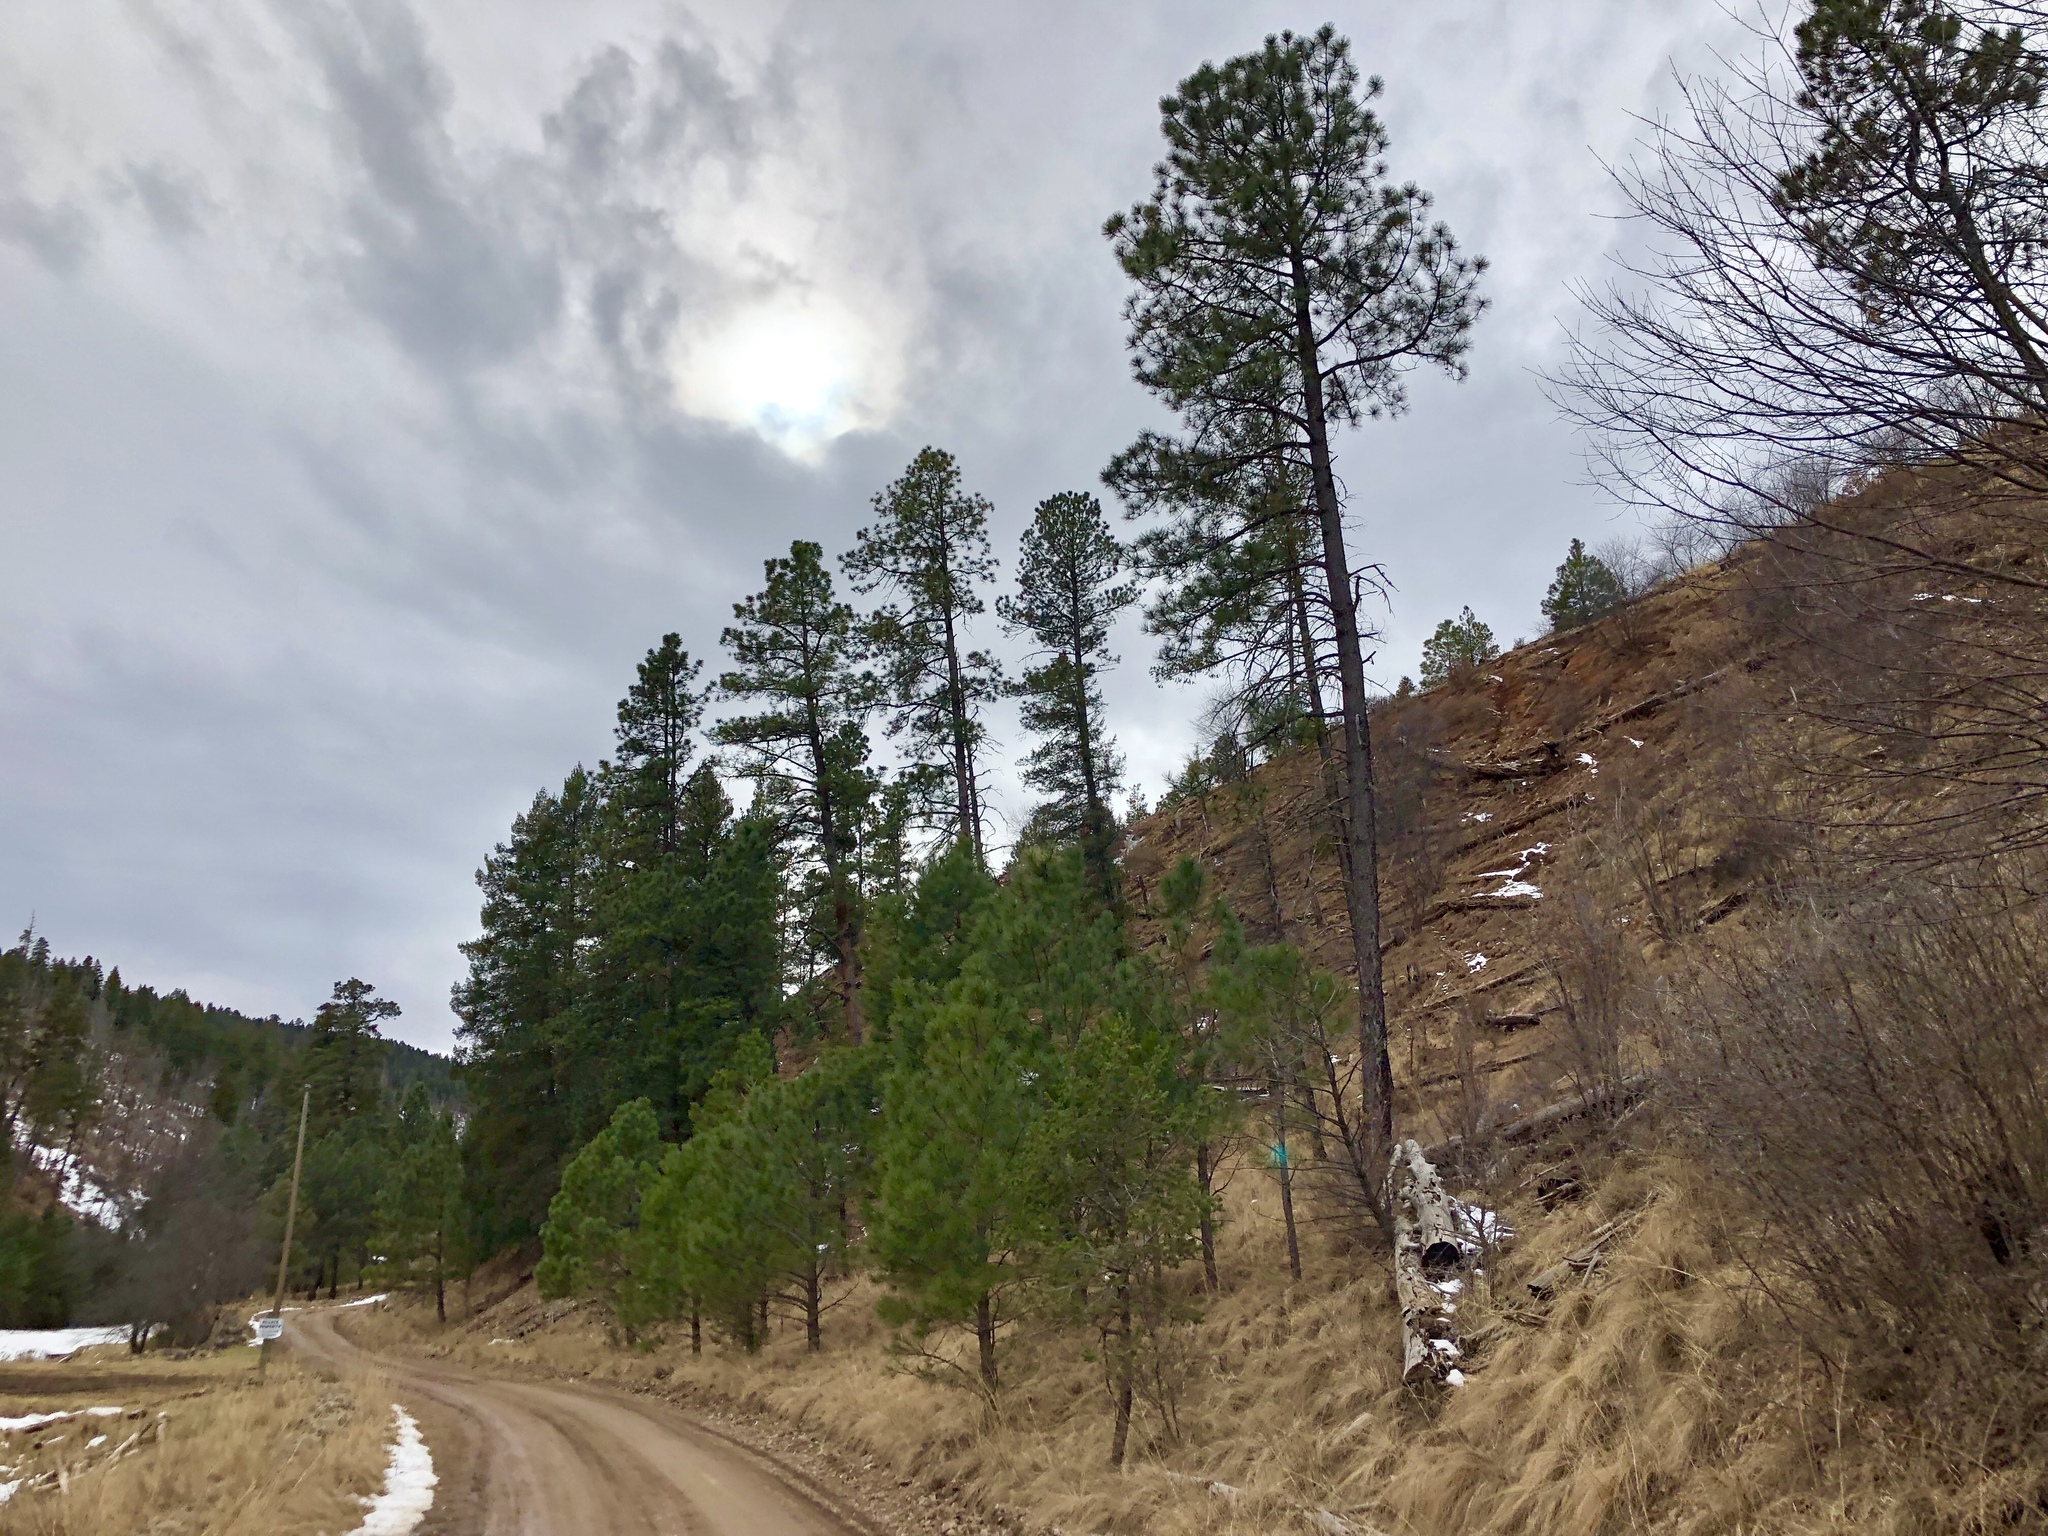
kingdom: Plantae
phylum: Tracheophyta
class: Pinopsida
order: Pinales
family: Pinaceae
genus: Pinus
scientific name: Pinus ponderosa
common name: Western yellow-pine
